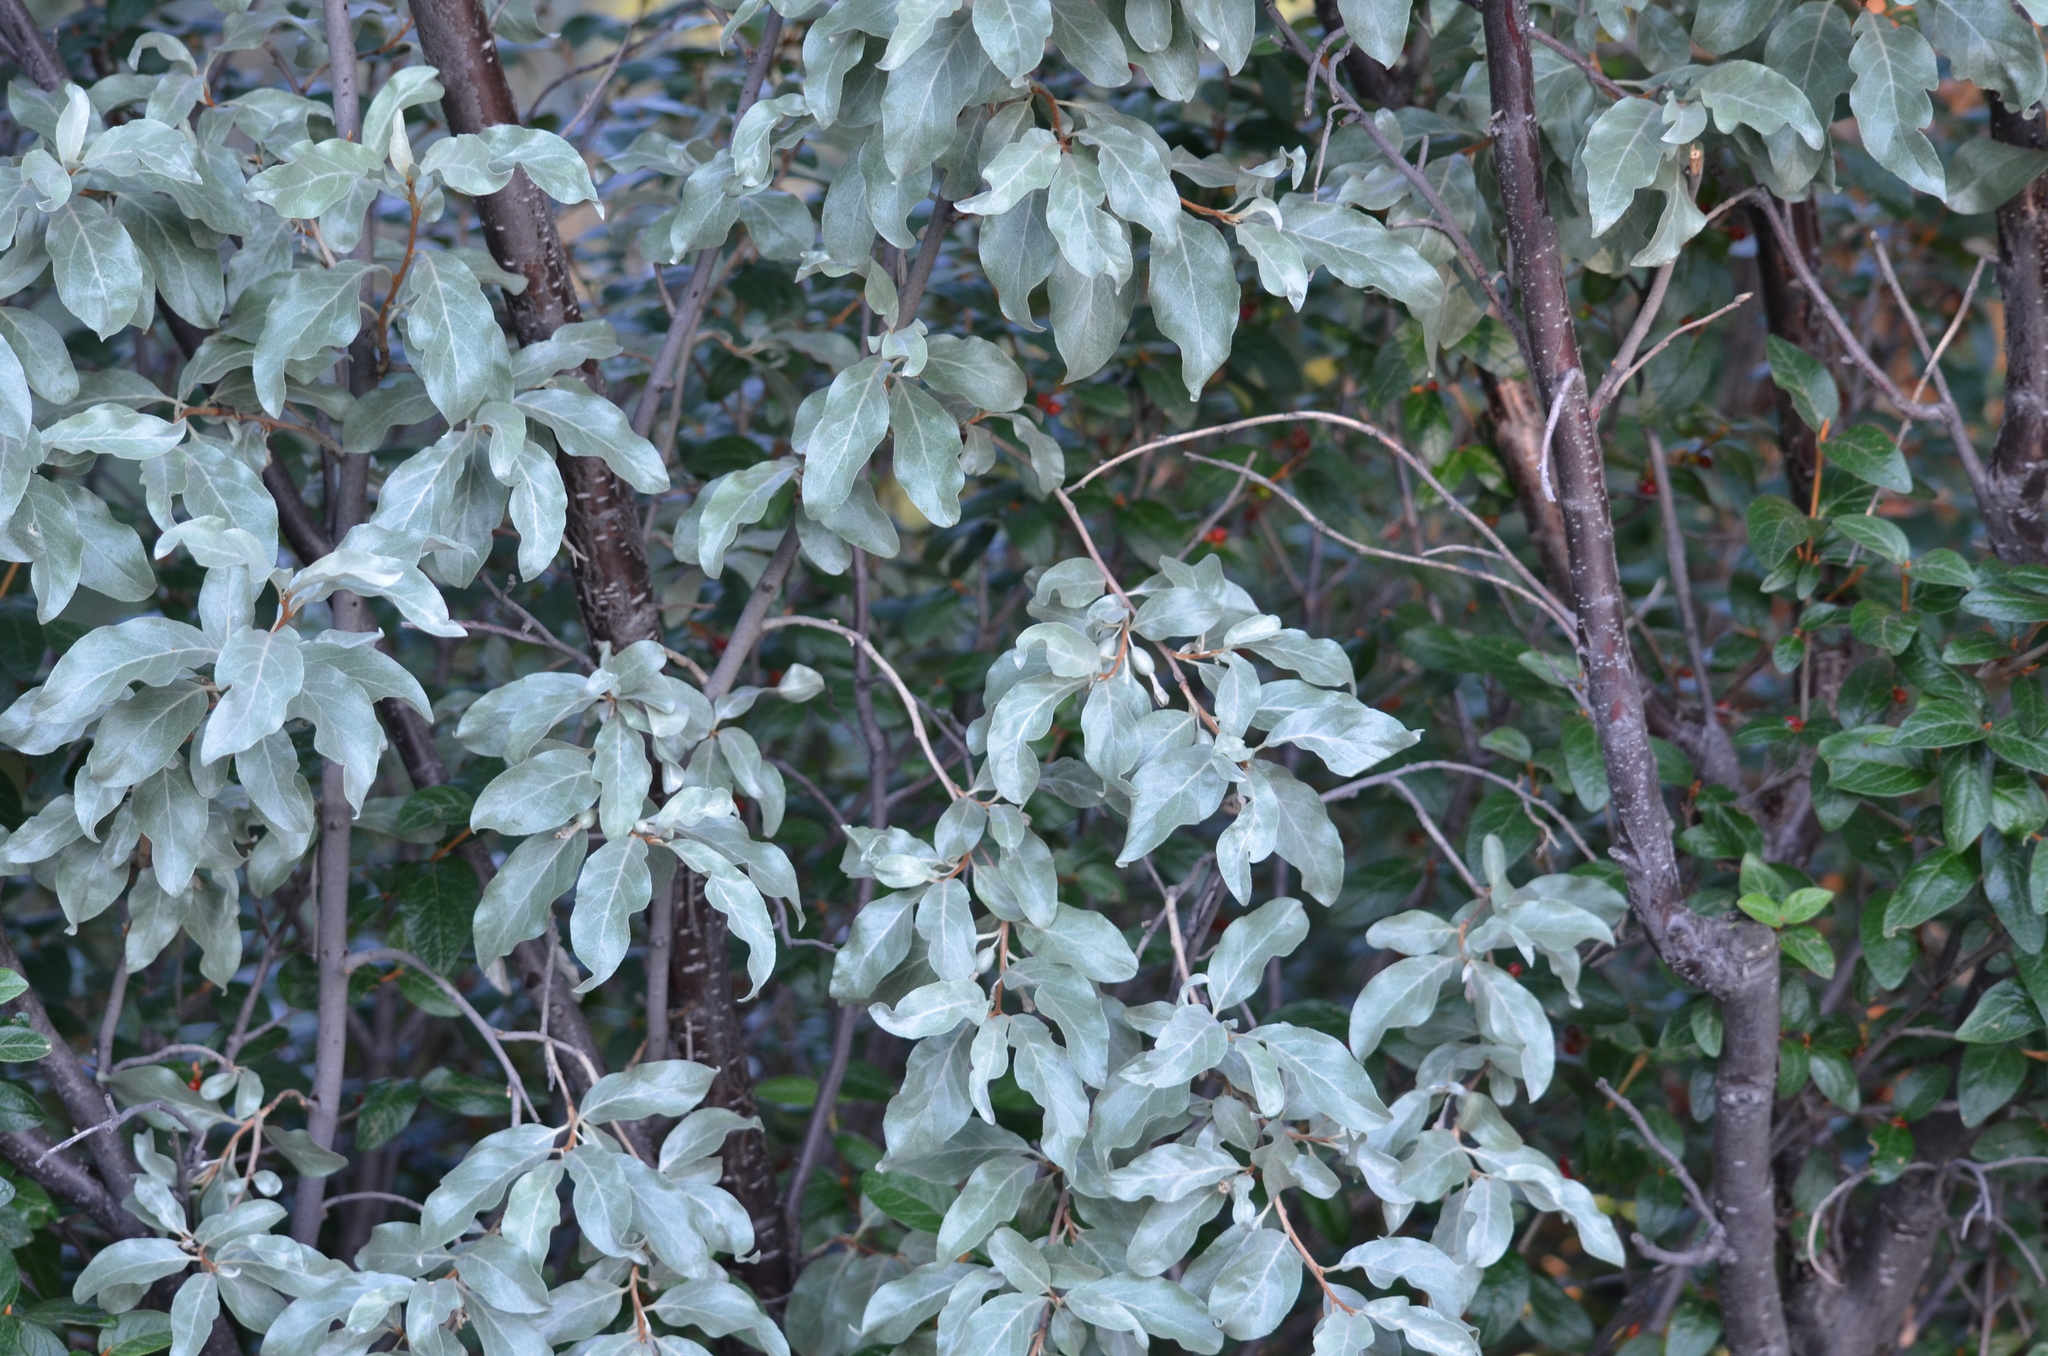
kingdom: Plantae
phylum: Tracheophyta
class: Magnoliopsida
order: Rosales
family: Elaeagnaceae
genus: Elaeagnus
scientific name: Elaeagnus commutata
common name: Silverberry
